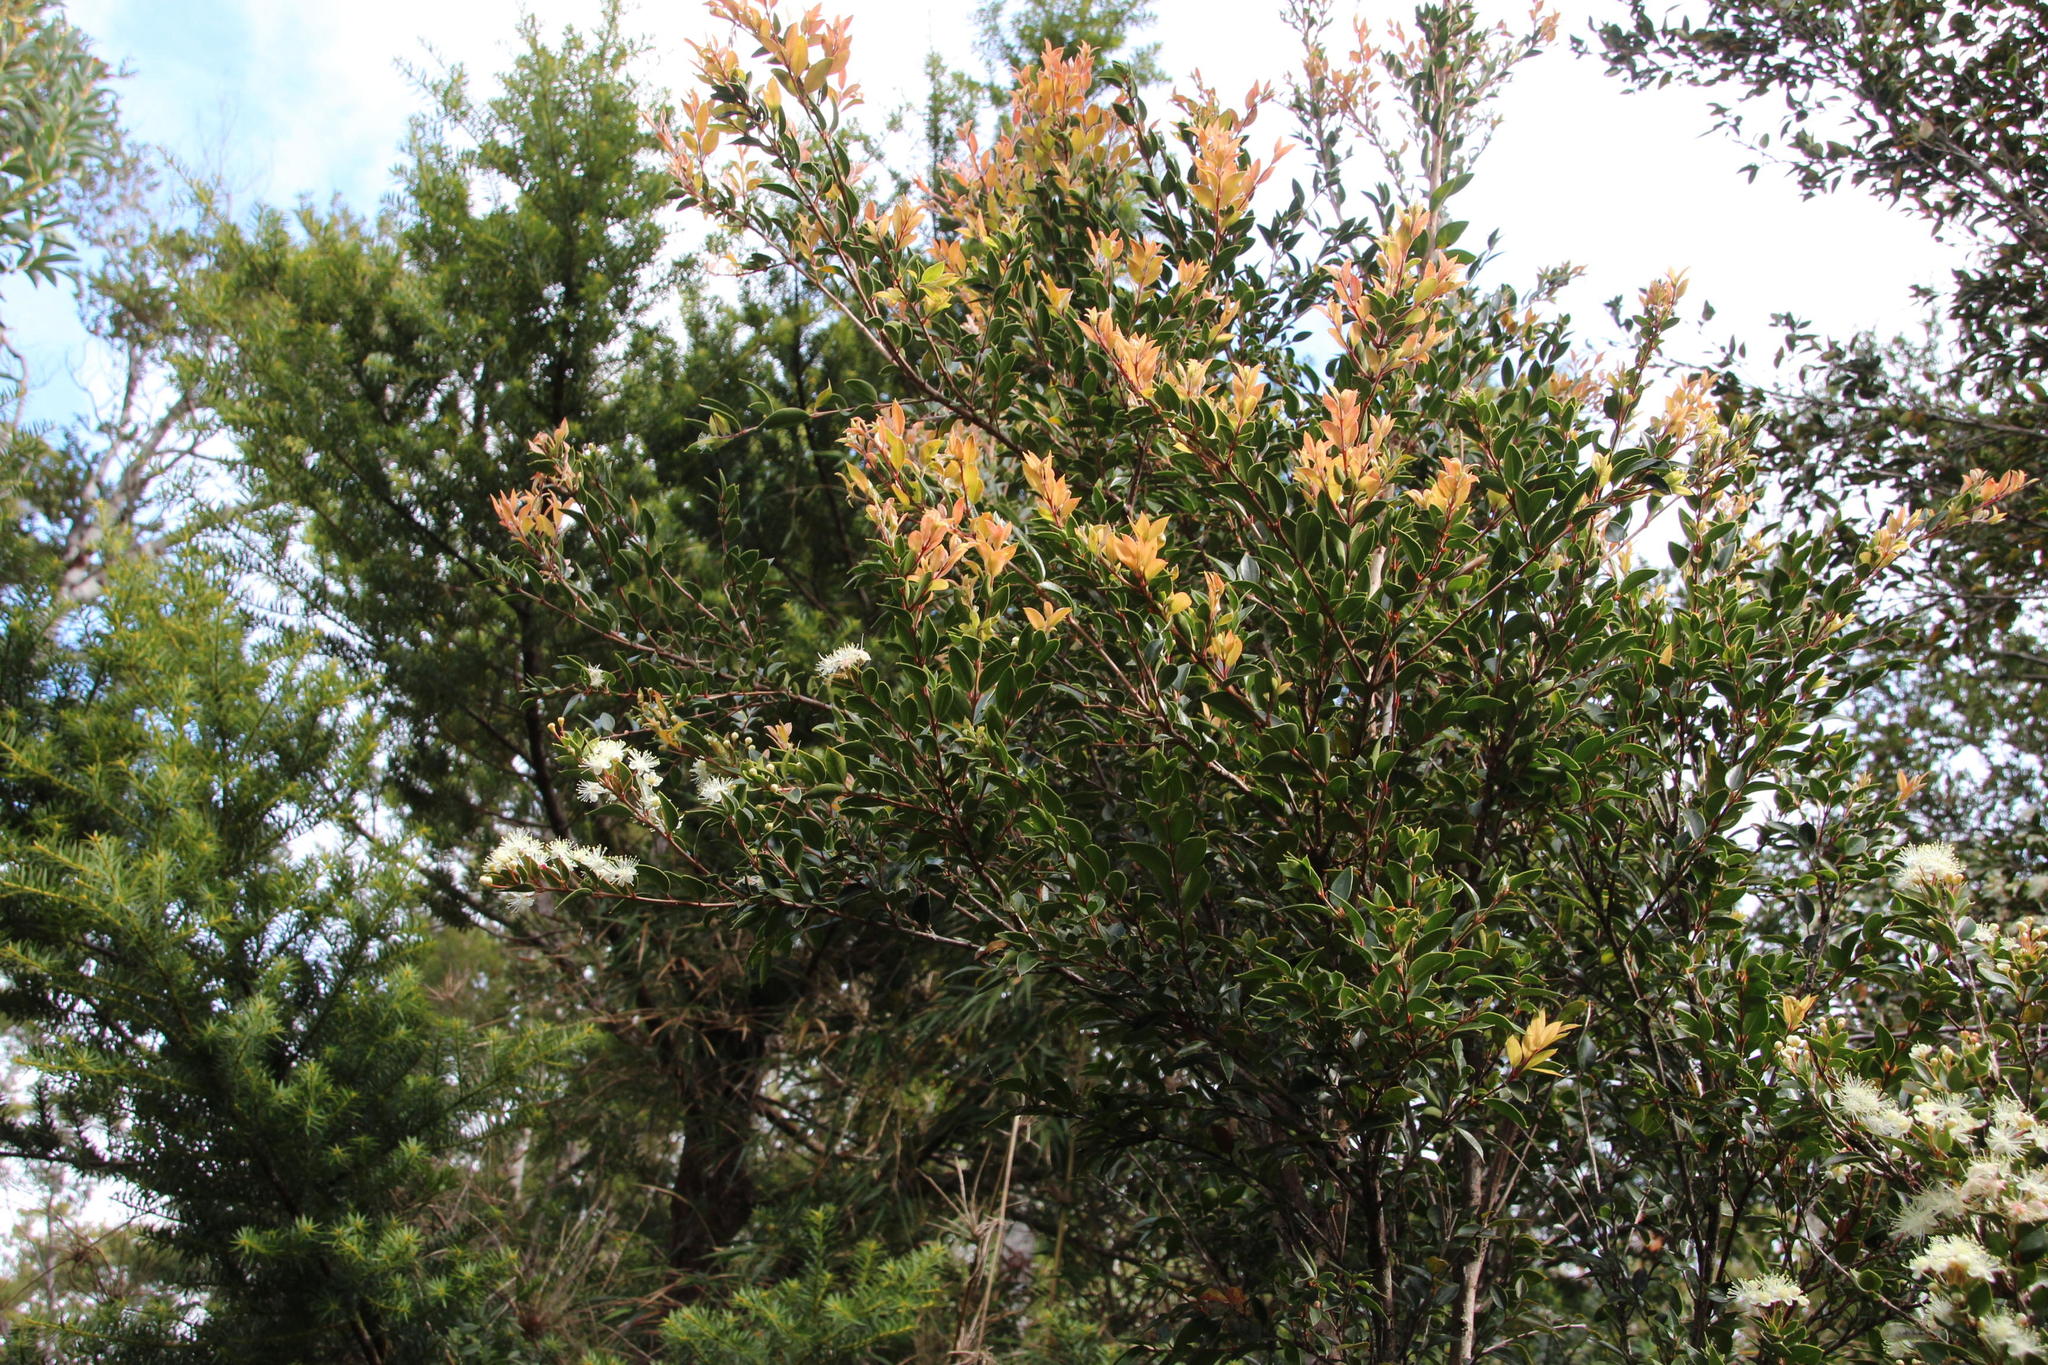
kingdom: Plantae
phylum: Tracheophyta
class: Magnoliopsida
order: Myrtales
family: Myrtaceae
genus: Amomyrtus
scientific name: Amomyrtus luma
